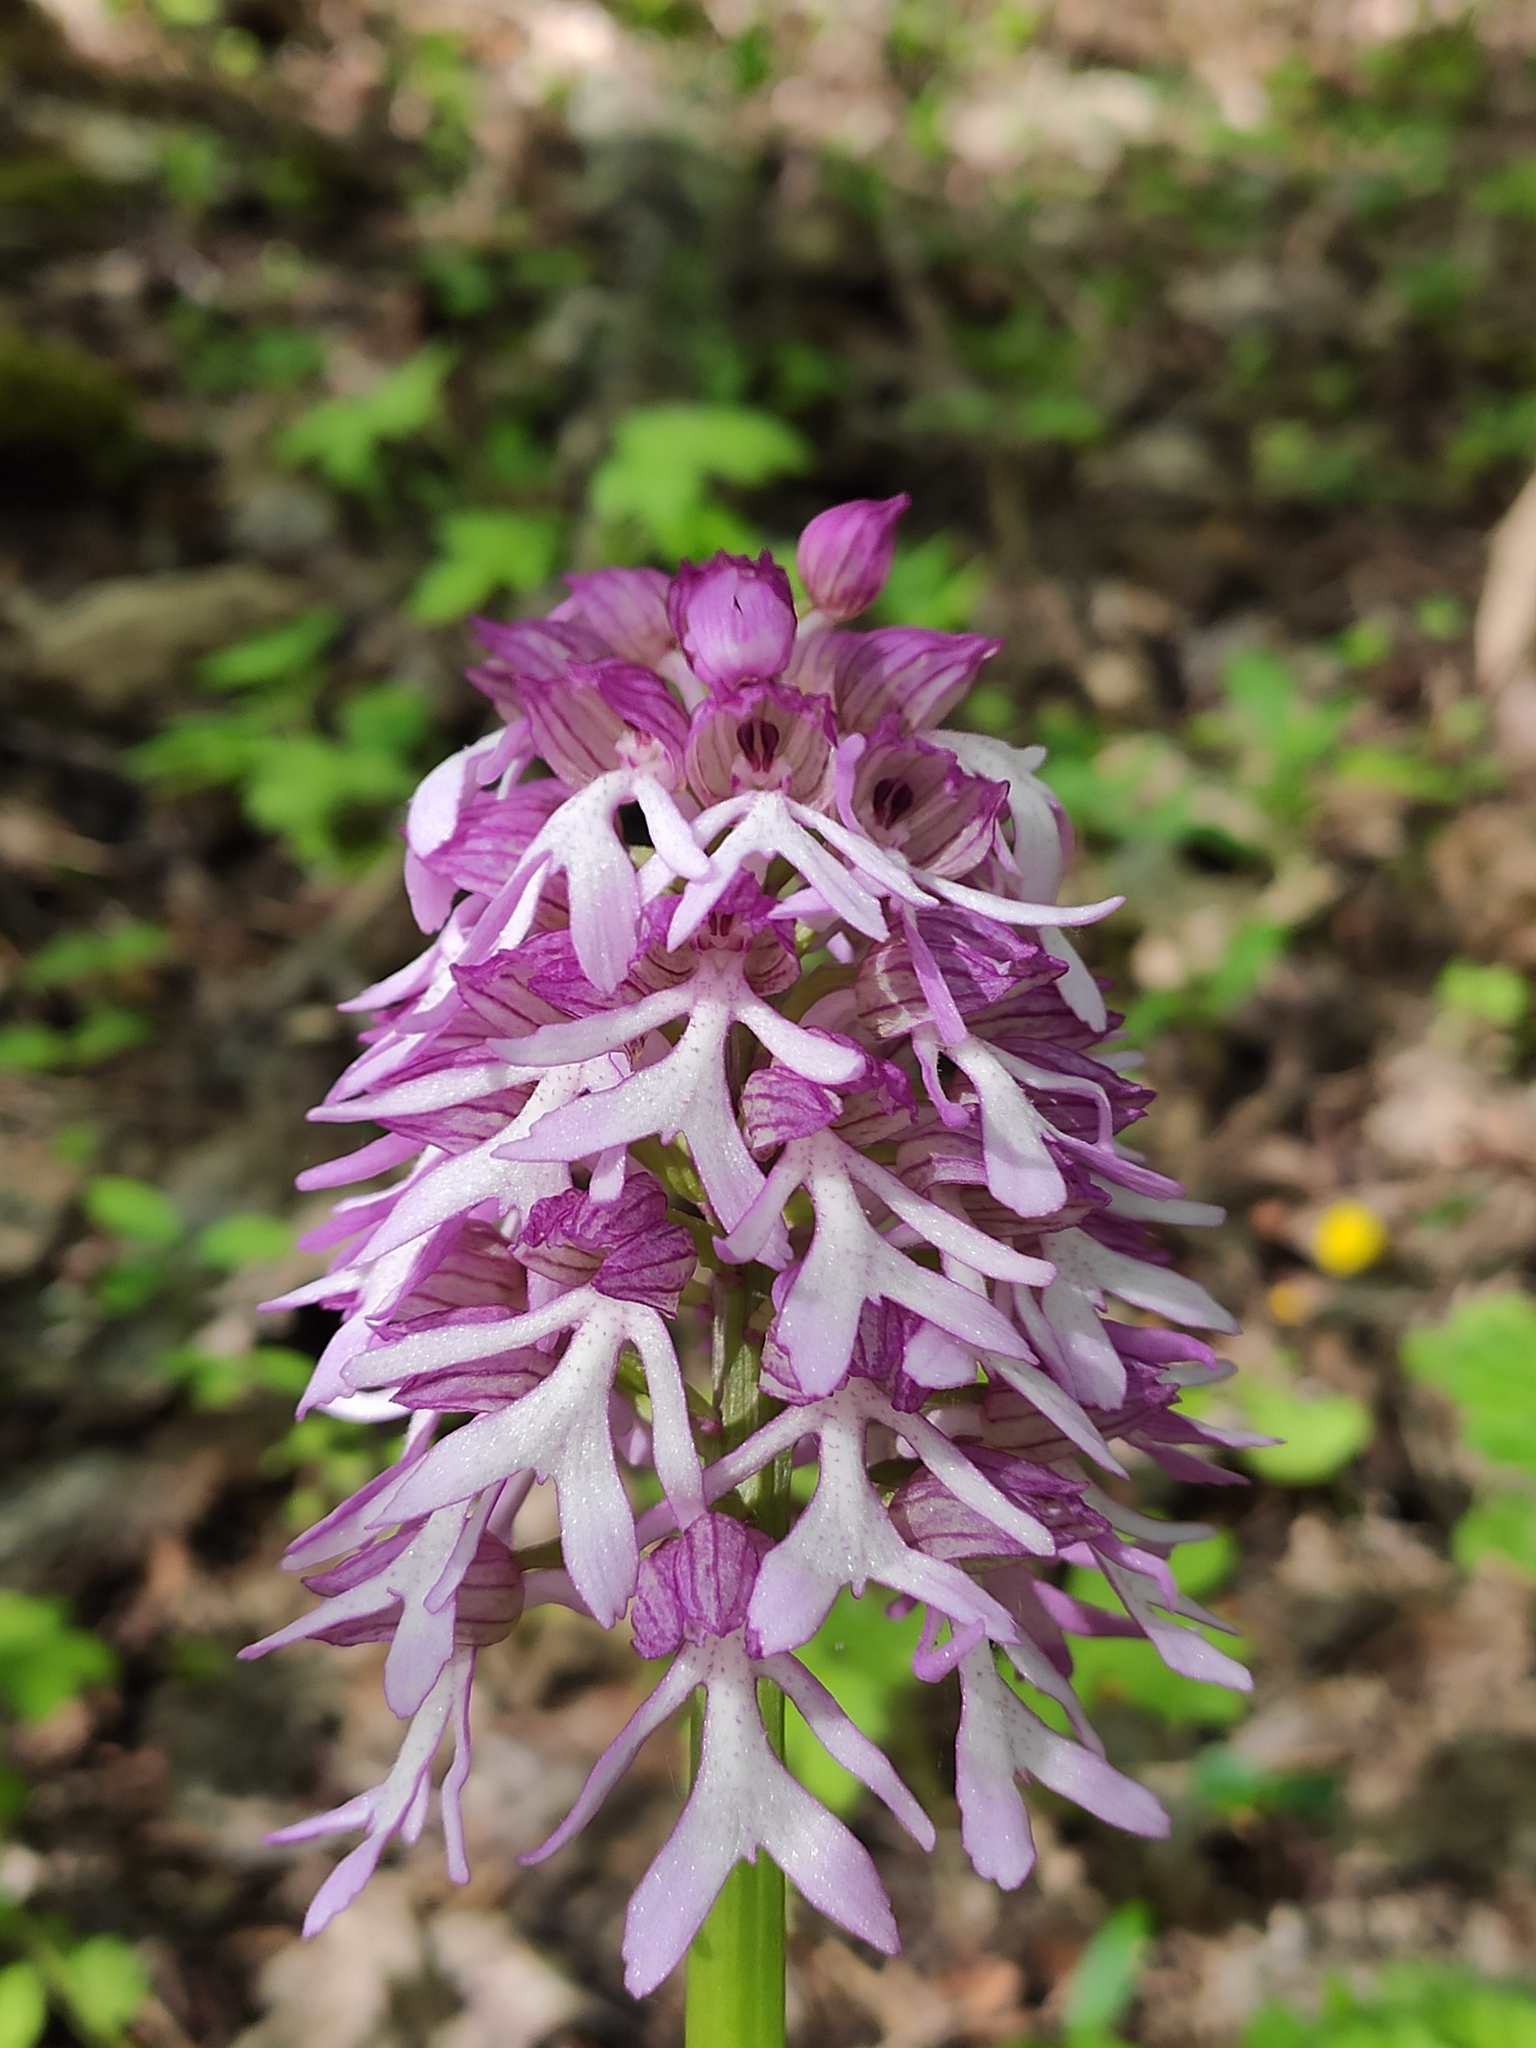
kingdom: Plantae
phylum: Tracheophyta
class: Liliopsida
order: Asparagales
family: Orchidaceae
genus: Orchis
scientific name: Orchis purpurea
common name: Lady orchid
